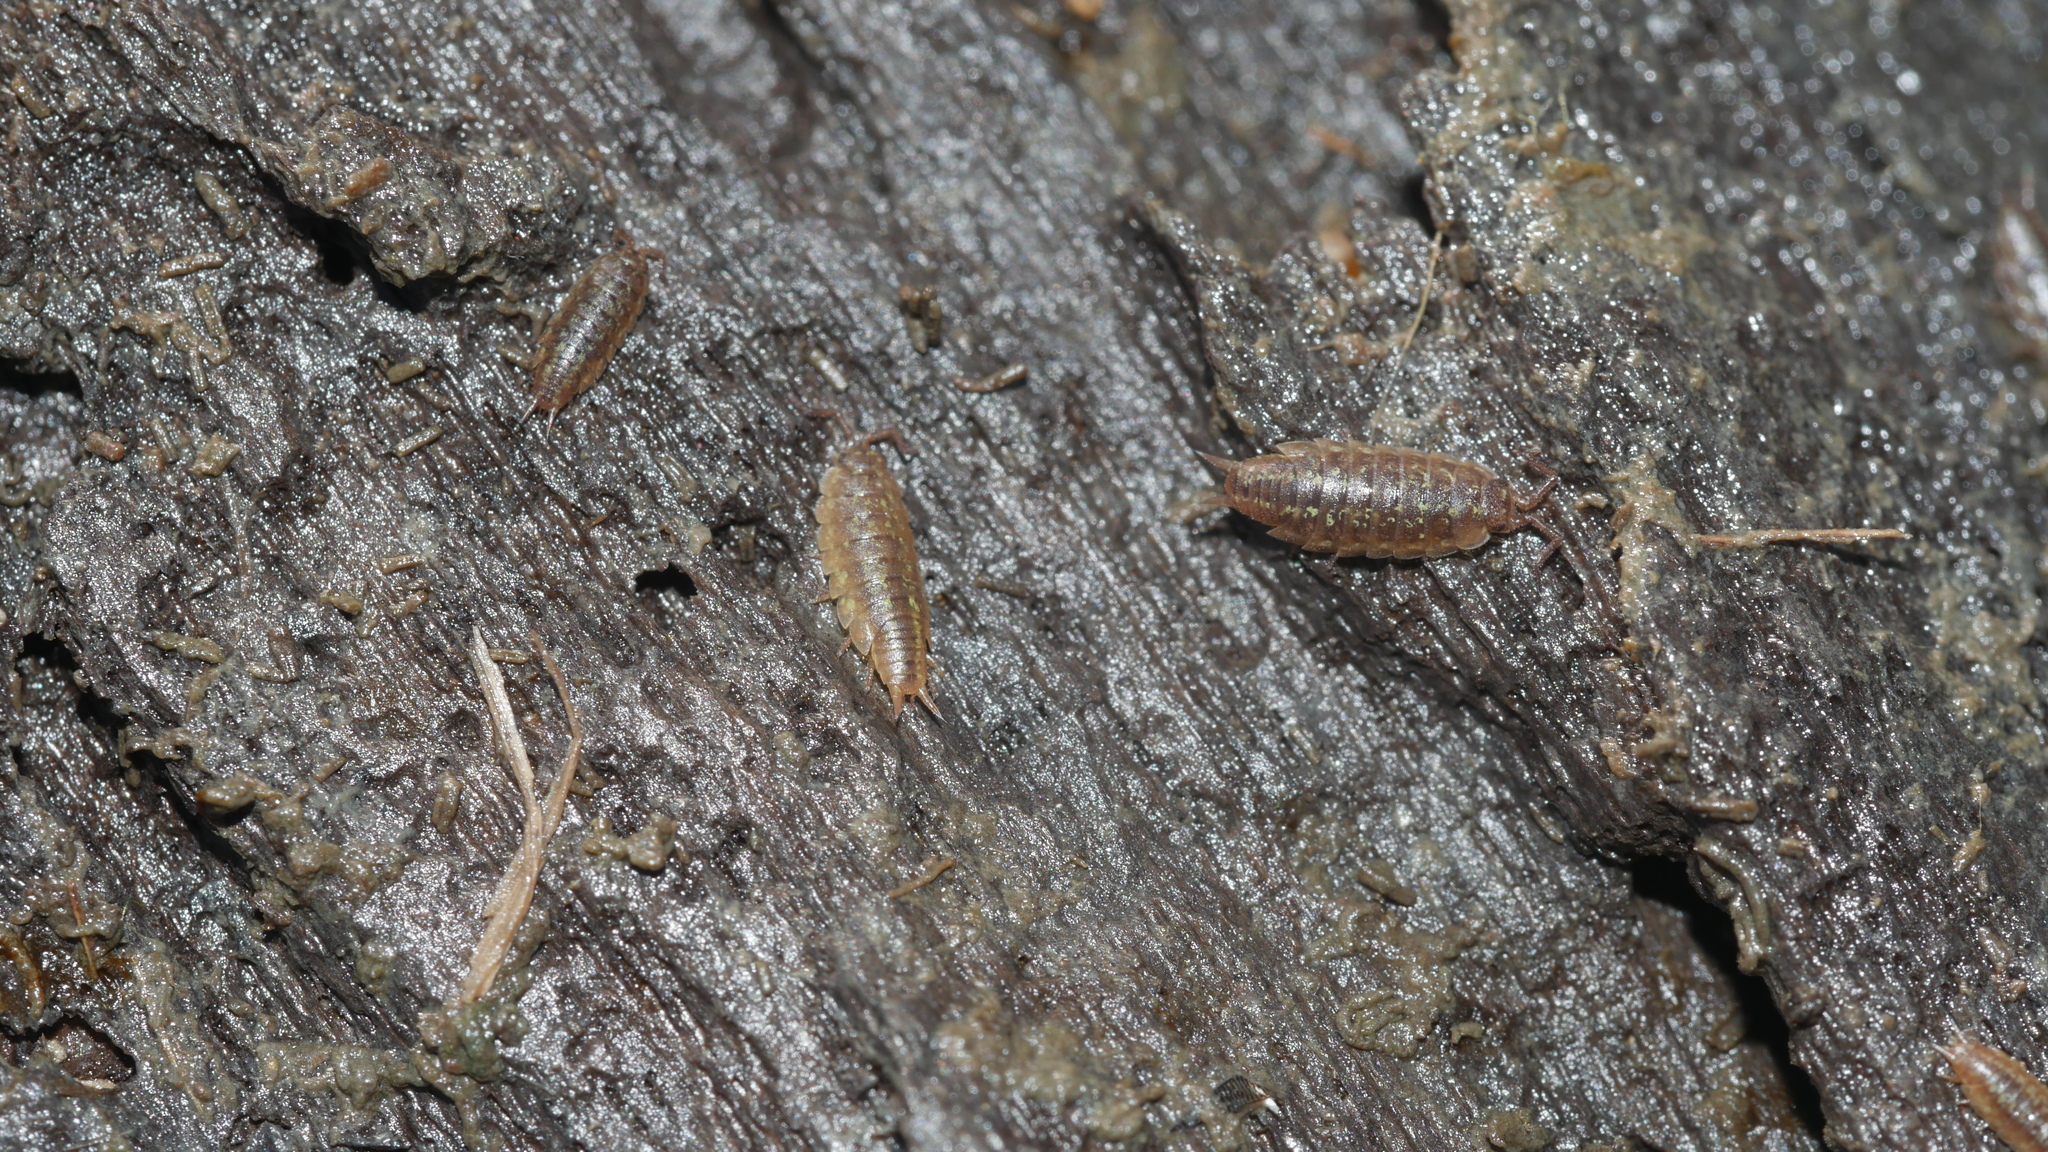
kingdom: Animalia
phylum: Arthropoda
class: Malacostraca
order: Isopoda
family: Halophilosciidae
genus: Littorophiloscia
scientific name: Littorophiloscia vittata
